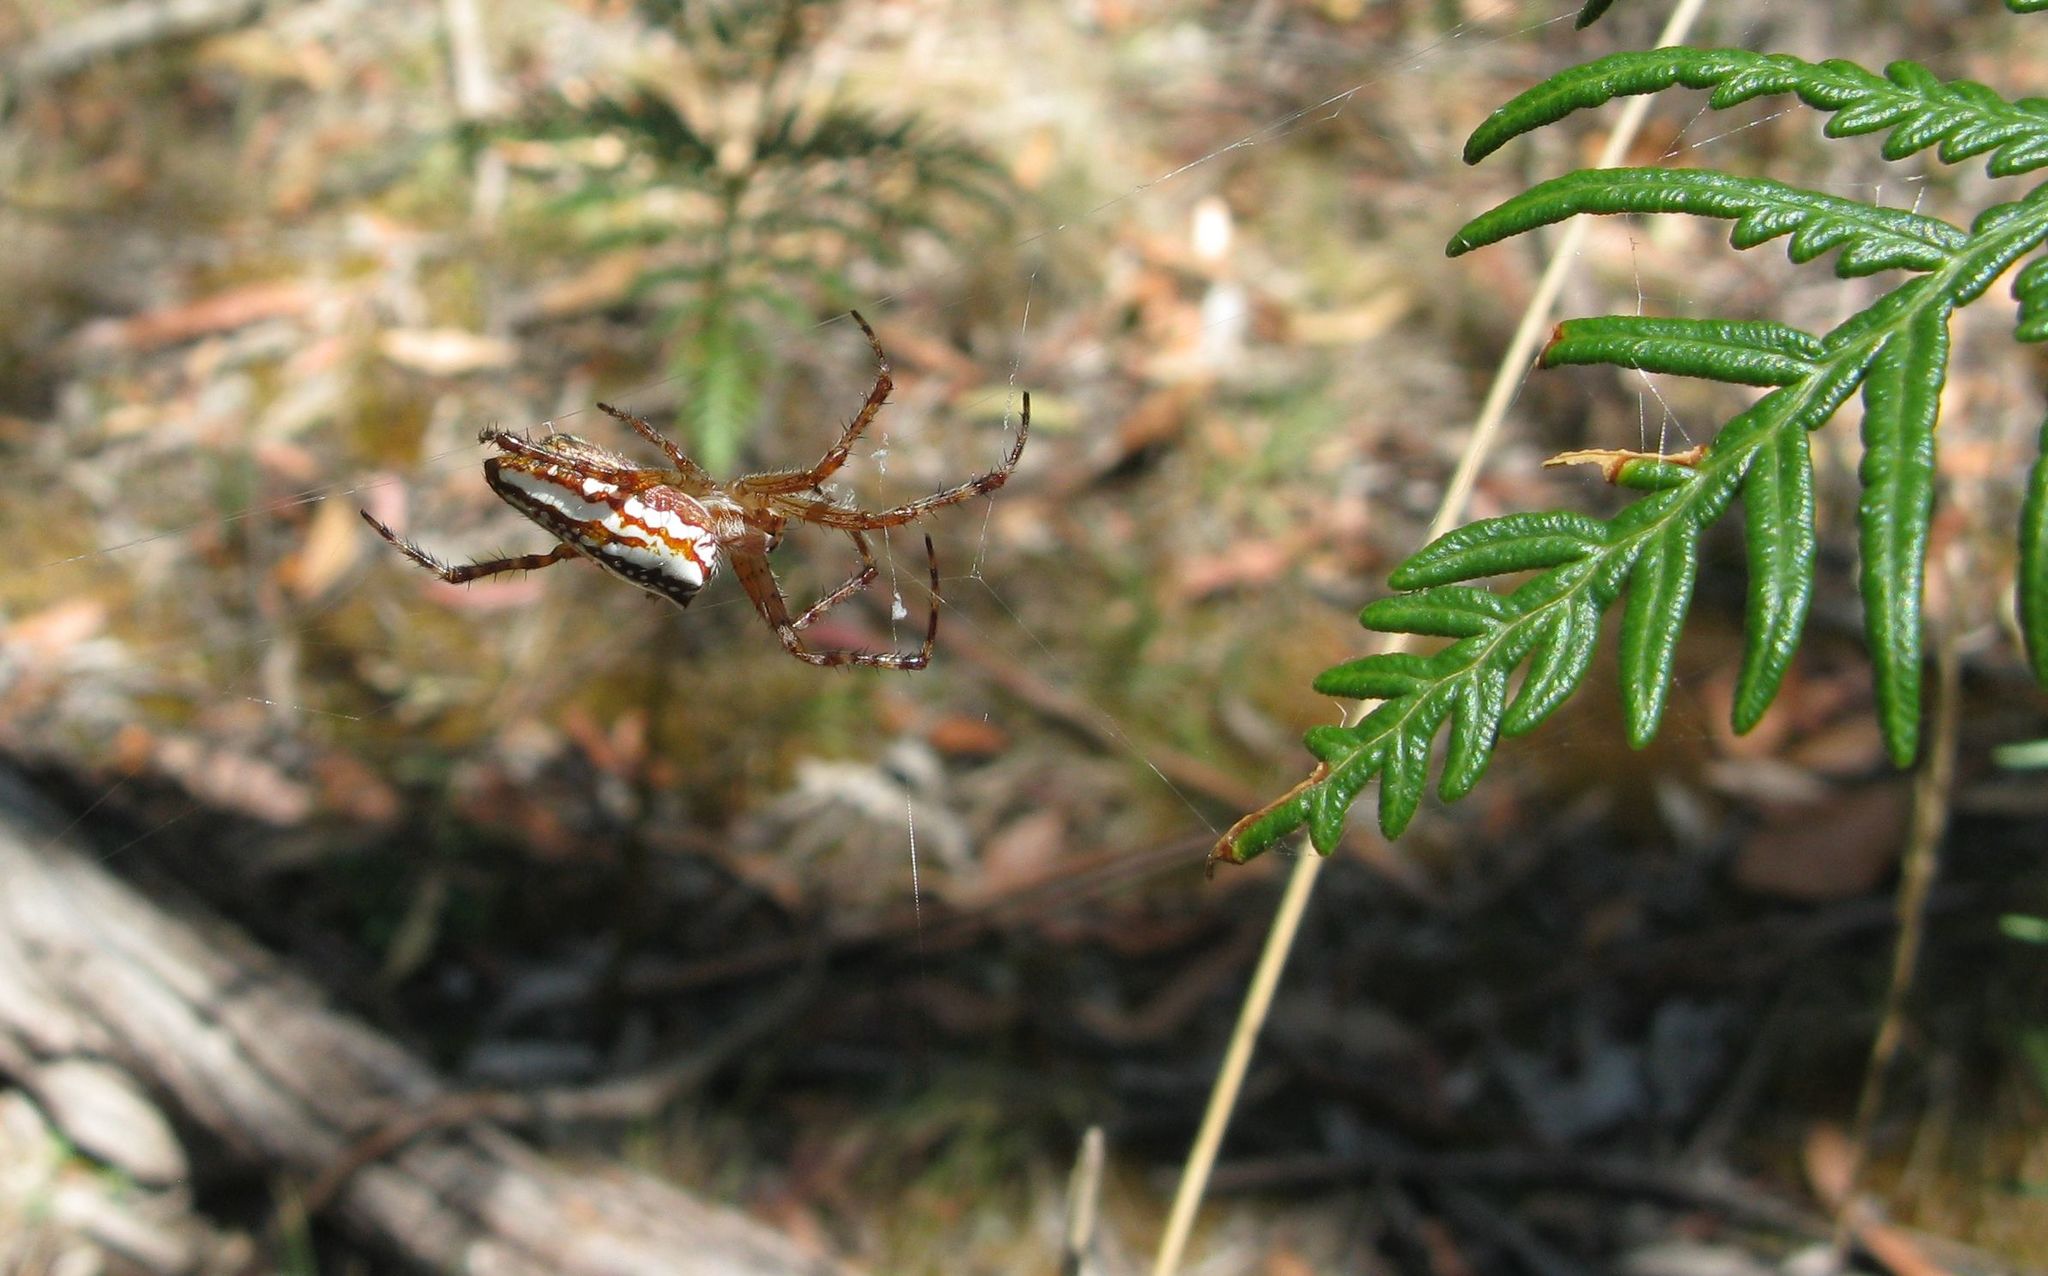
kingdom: Animalia
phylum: Arthropoda
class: Arachnida
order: Araneae
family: Araneidae
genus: Plebs
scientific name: Plebs bradleyi
